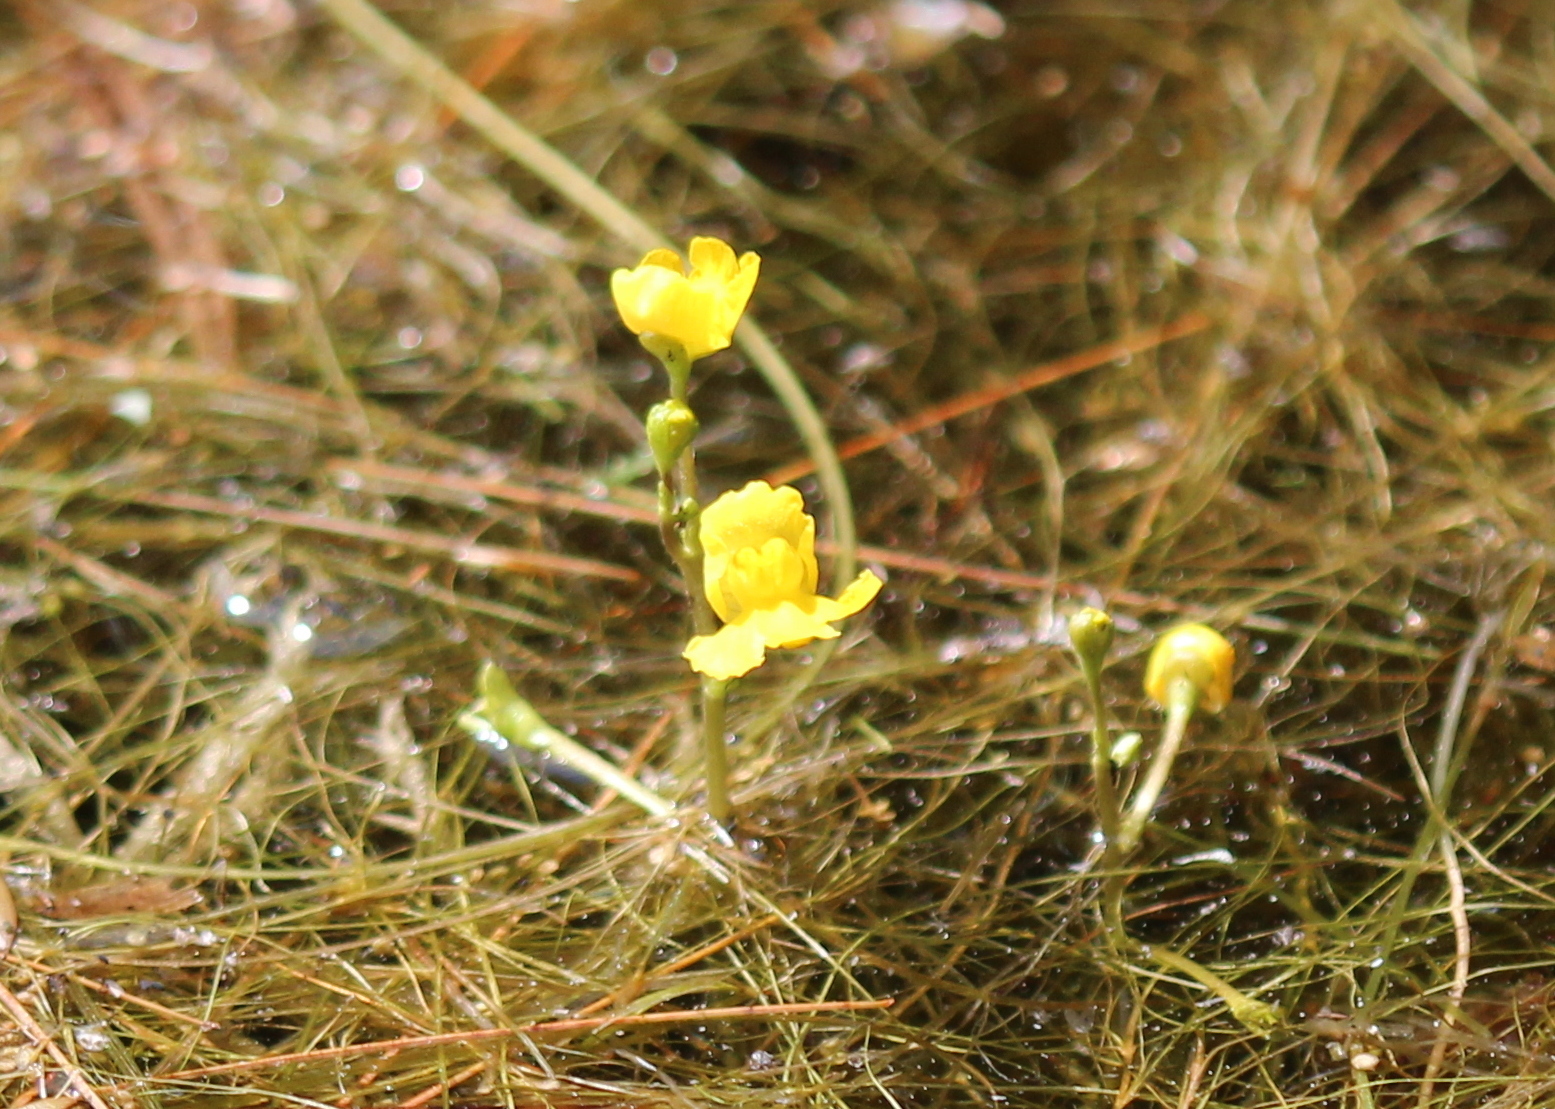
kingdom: Plantae
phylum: Tracheophyta
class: Magnoliopsida
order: Lamiales
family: Lentibulariaceae
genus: Utricularia
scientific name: Utricularia radiata
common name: Floating bladderwort
